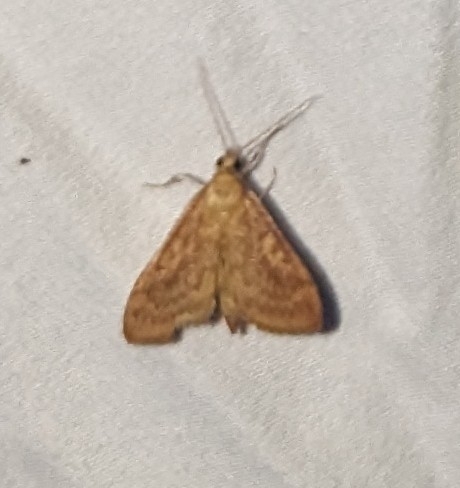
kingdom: Animalia
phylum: Arthropoda
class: Insecta
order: Lepidoptera
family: Crambidae
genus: Saucrobotys
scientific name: Saucrobotys futilalis
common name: Dogbane saucrobotys moth
